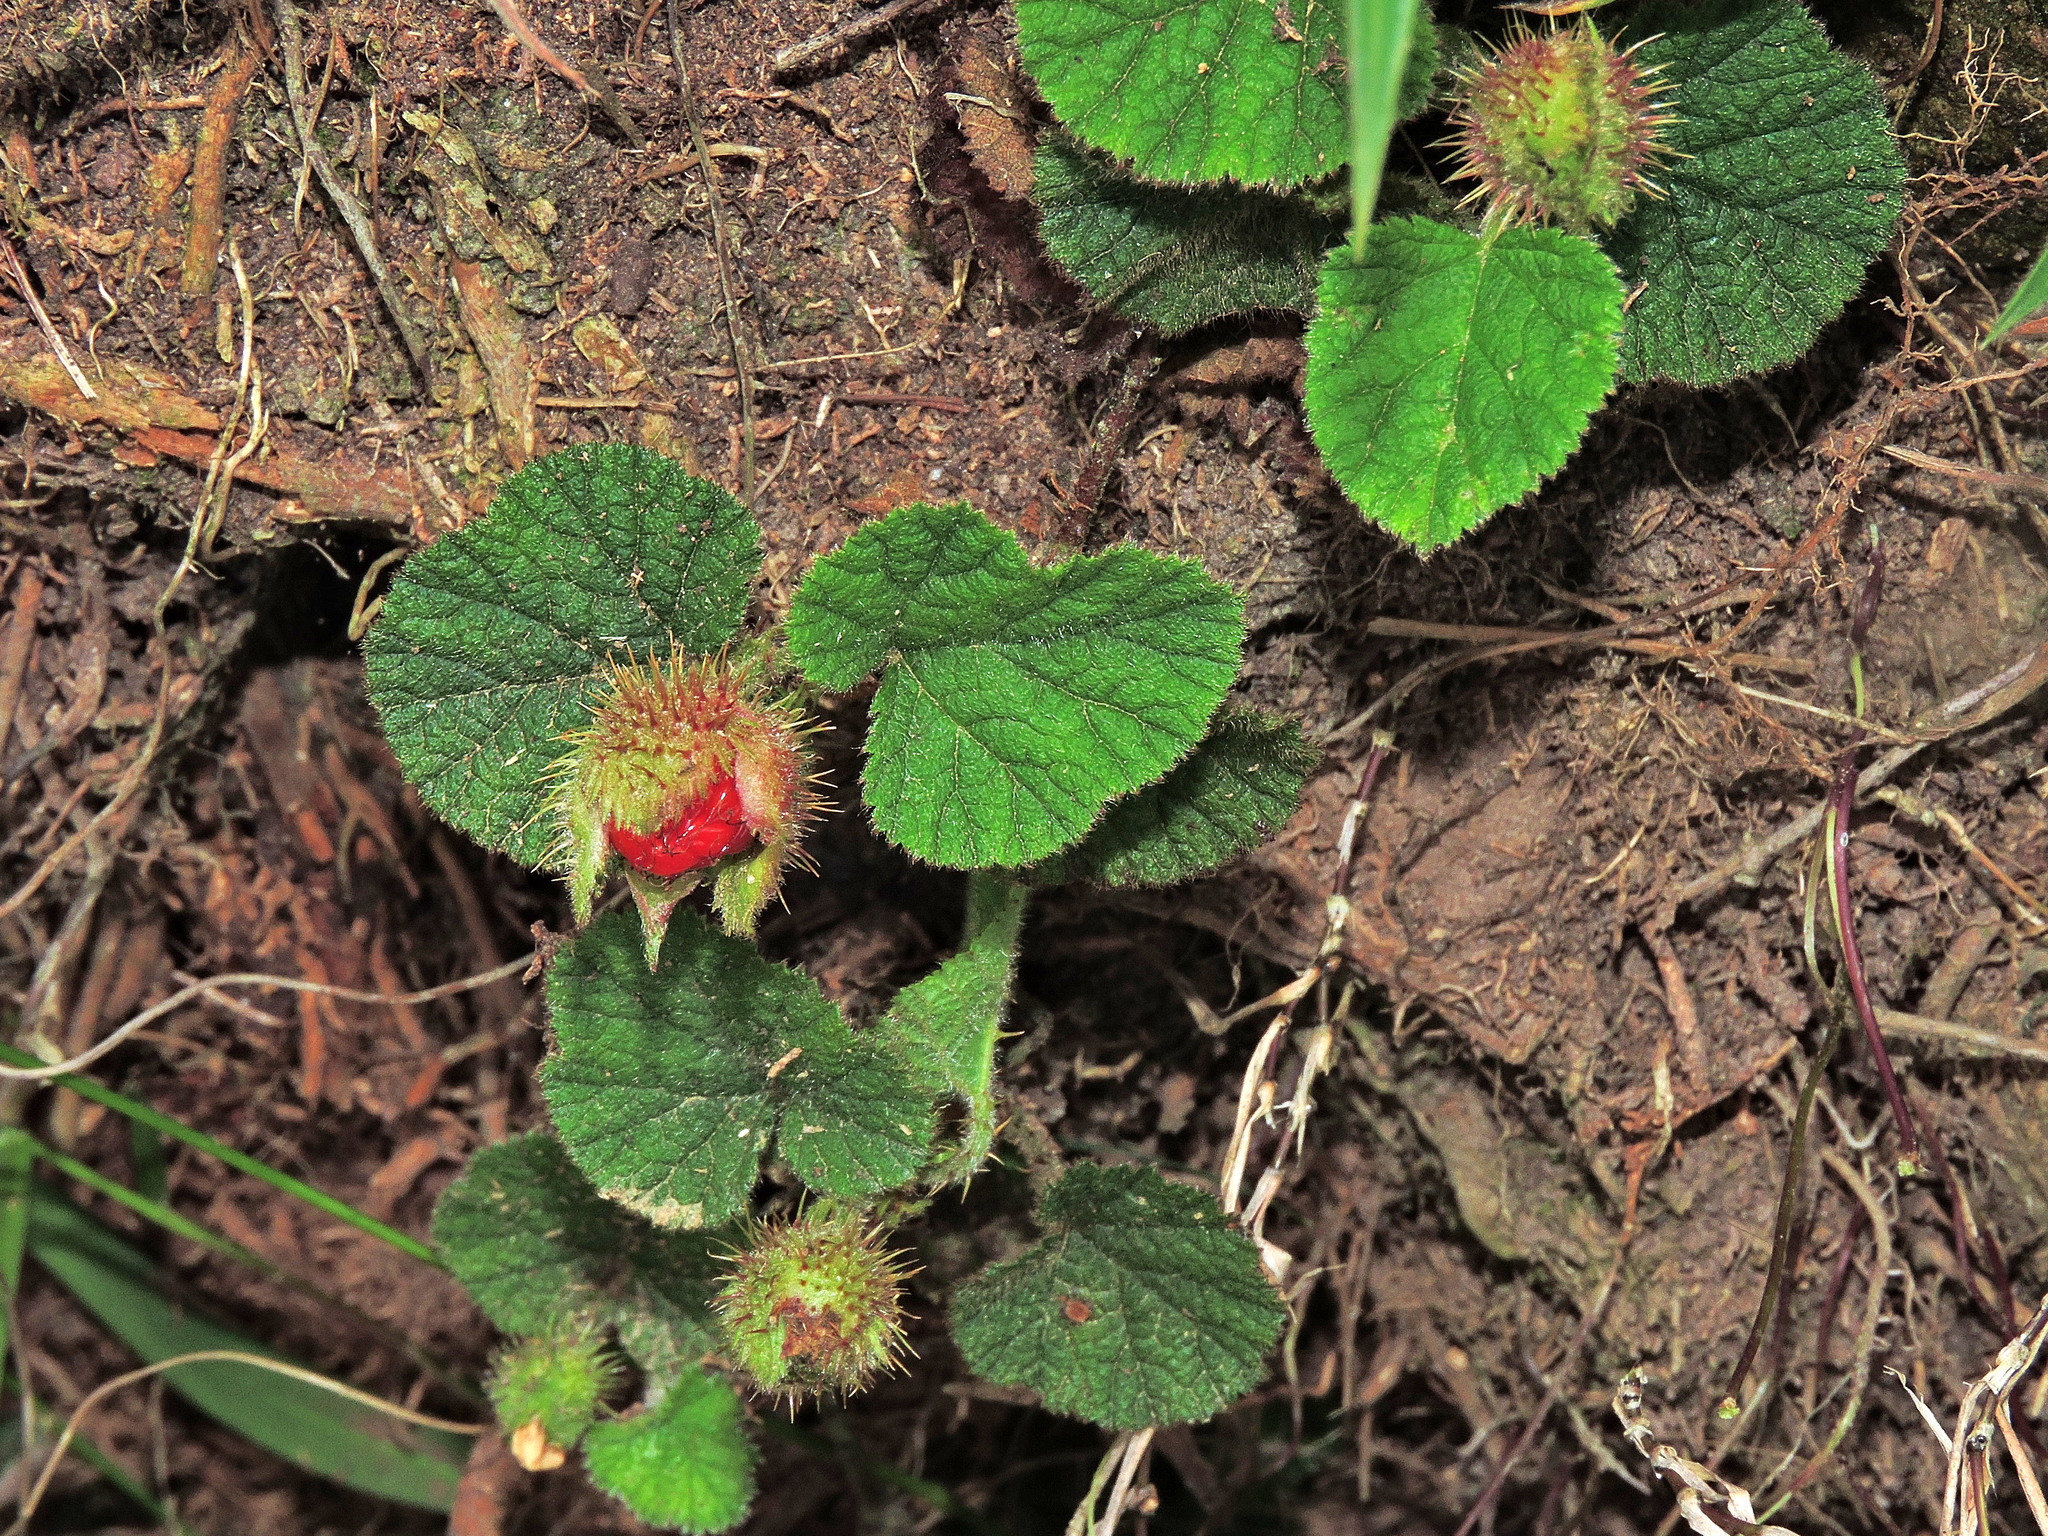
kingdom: Plantae
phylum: Tracheophyta
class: Magnoliopsida
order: Rosales
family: Rosaceae
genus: Rubus
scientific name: Rubus pectinellus
